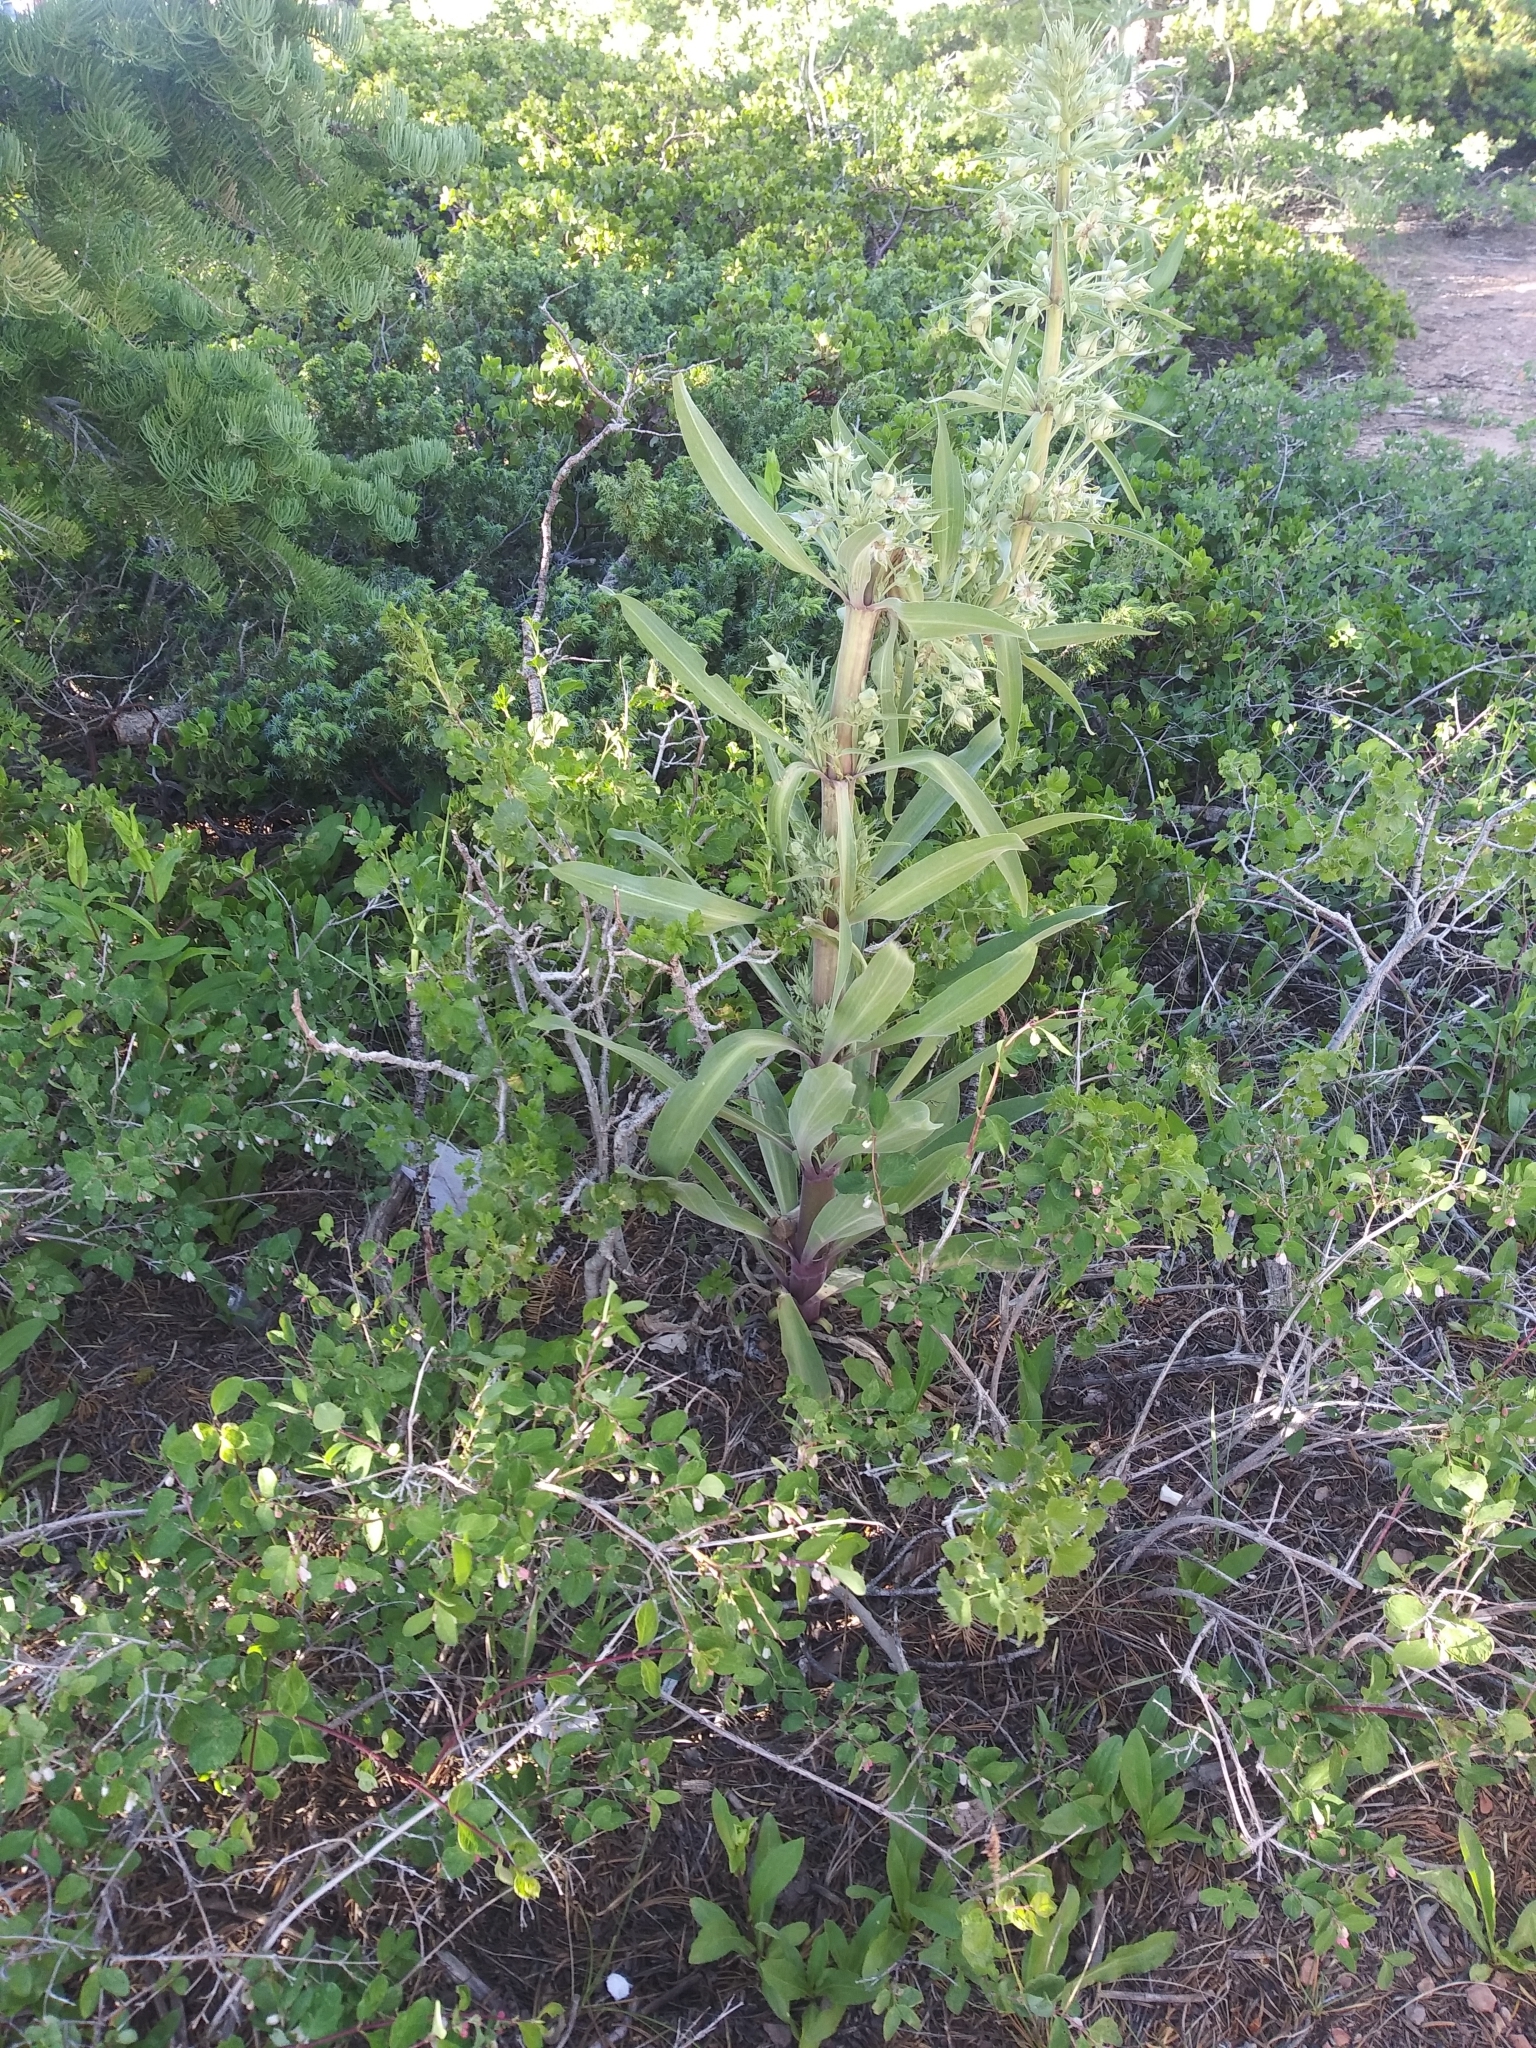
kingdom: Plantae
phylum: Tracheophyta
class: Magnoliopsida
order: Gentianales
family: Gentianaceae
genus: Frasera
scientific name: Frasera speciosa
